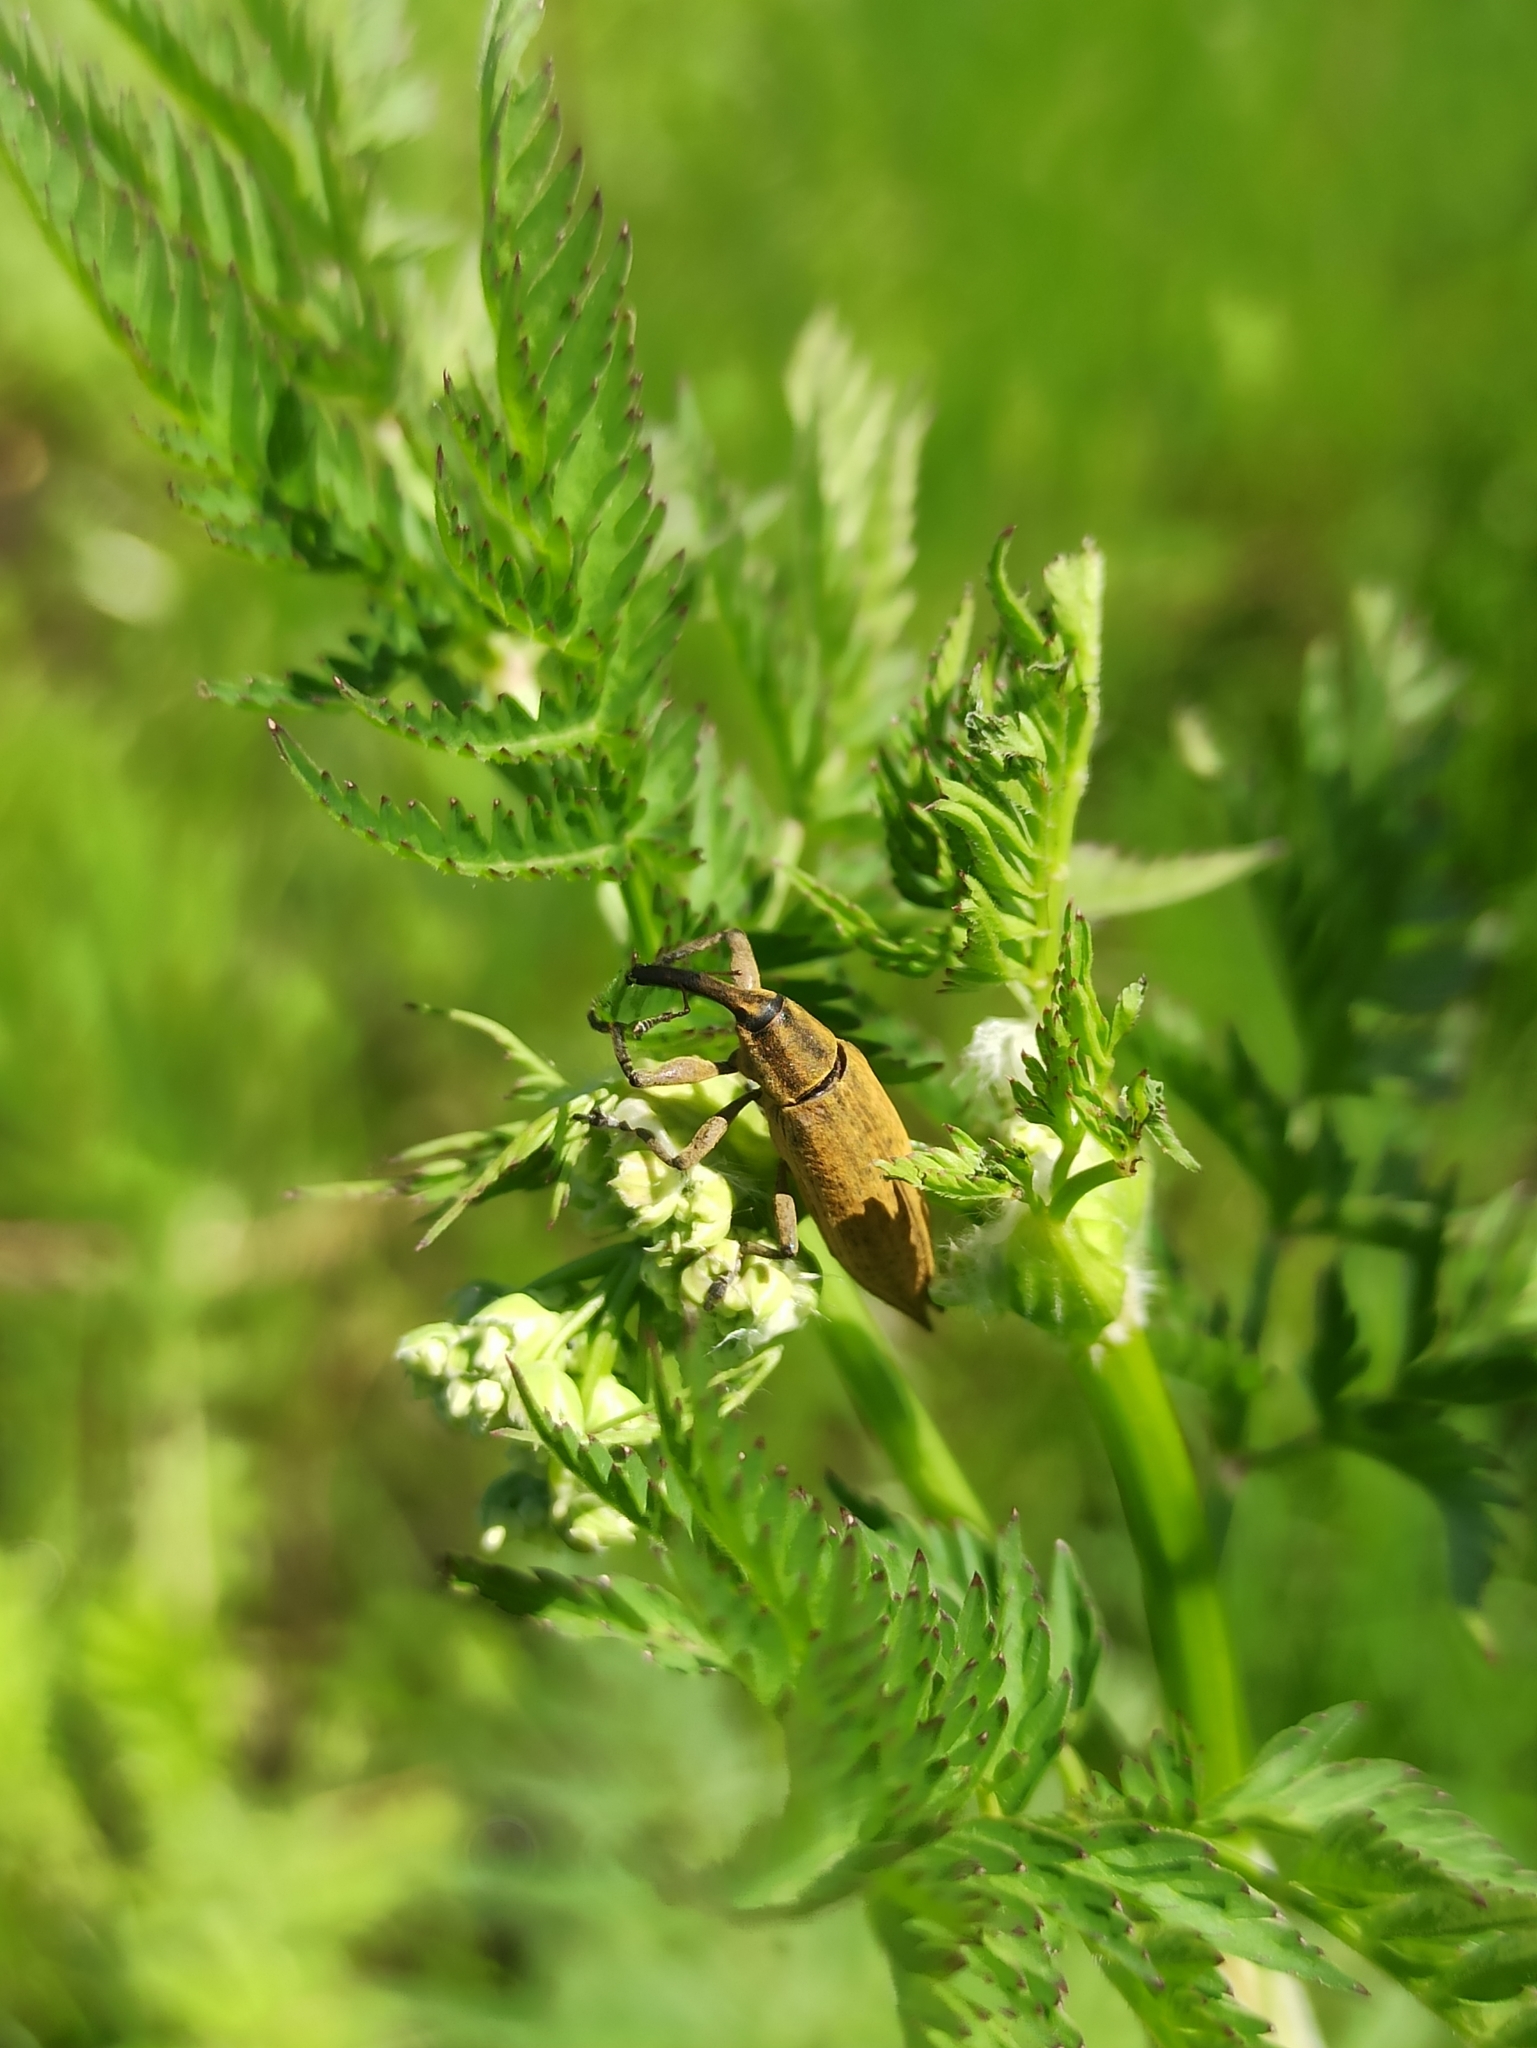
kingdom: Animalia
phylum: Arthropoda
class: Insecta
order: Coleoptera
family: Curculionidae
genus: Lixus
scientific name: Lixus iridis
